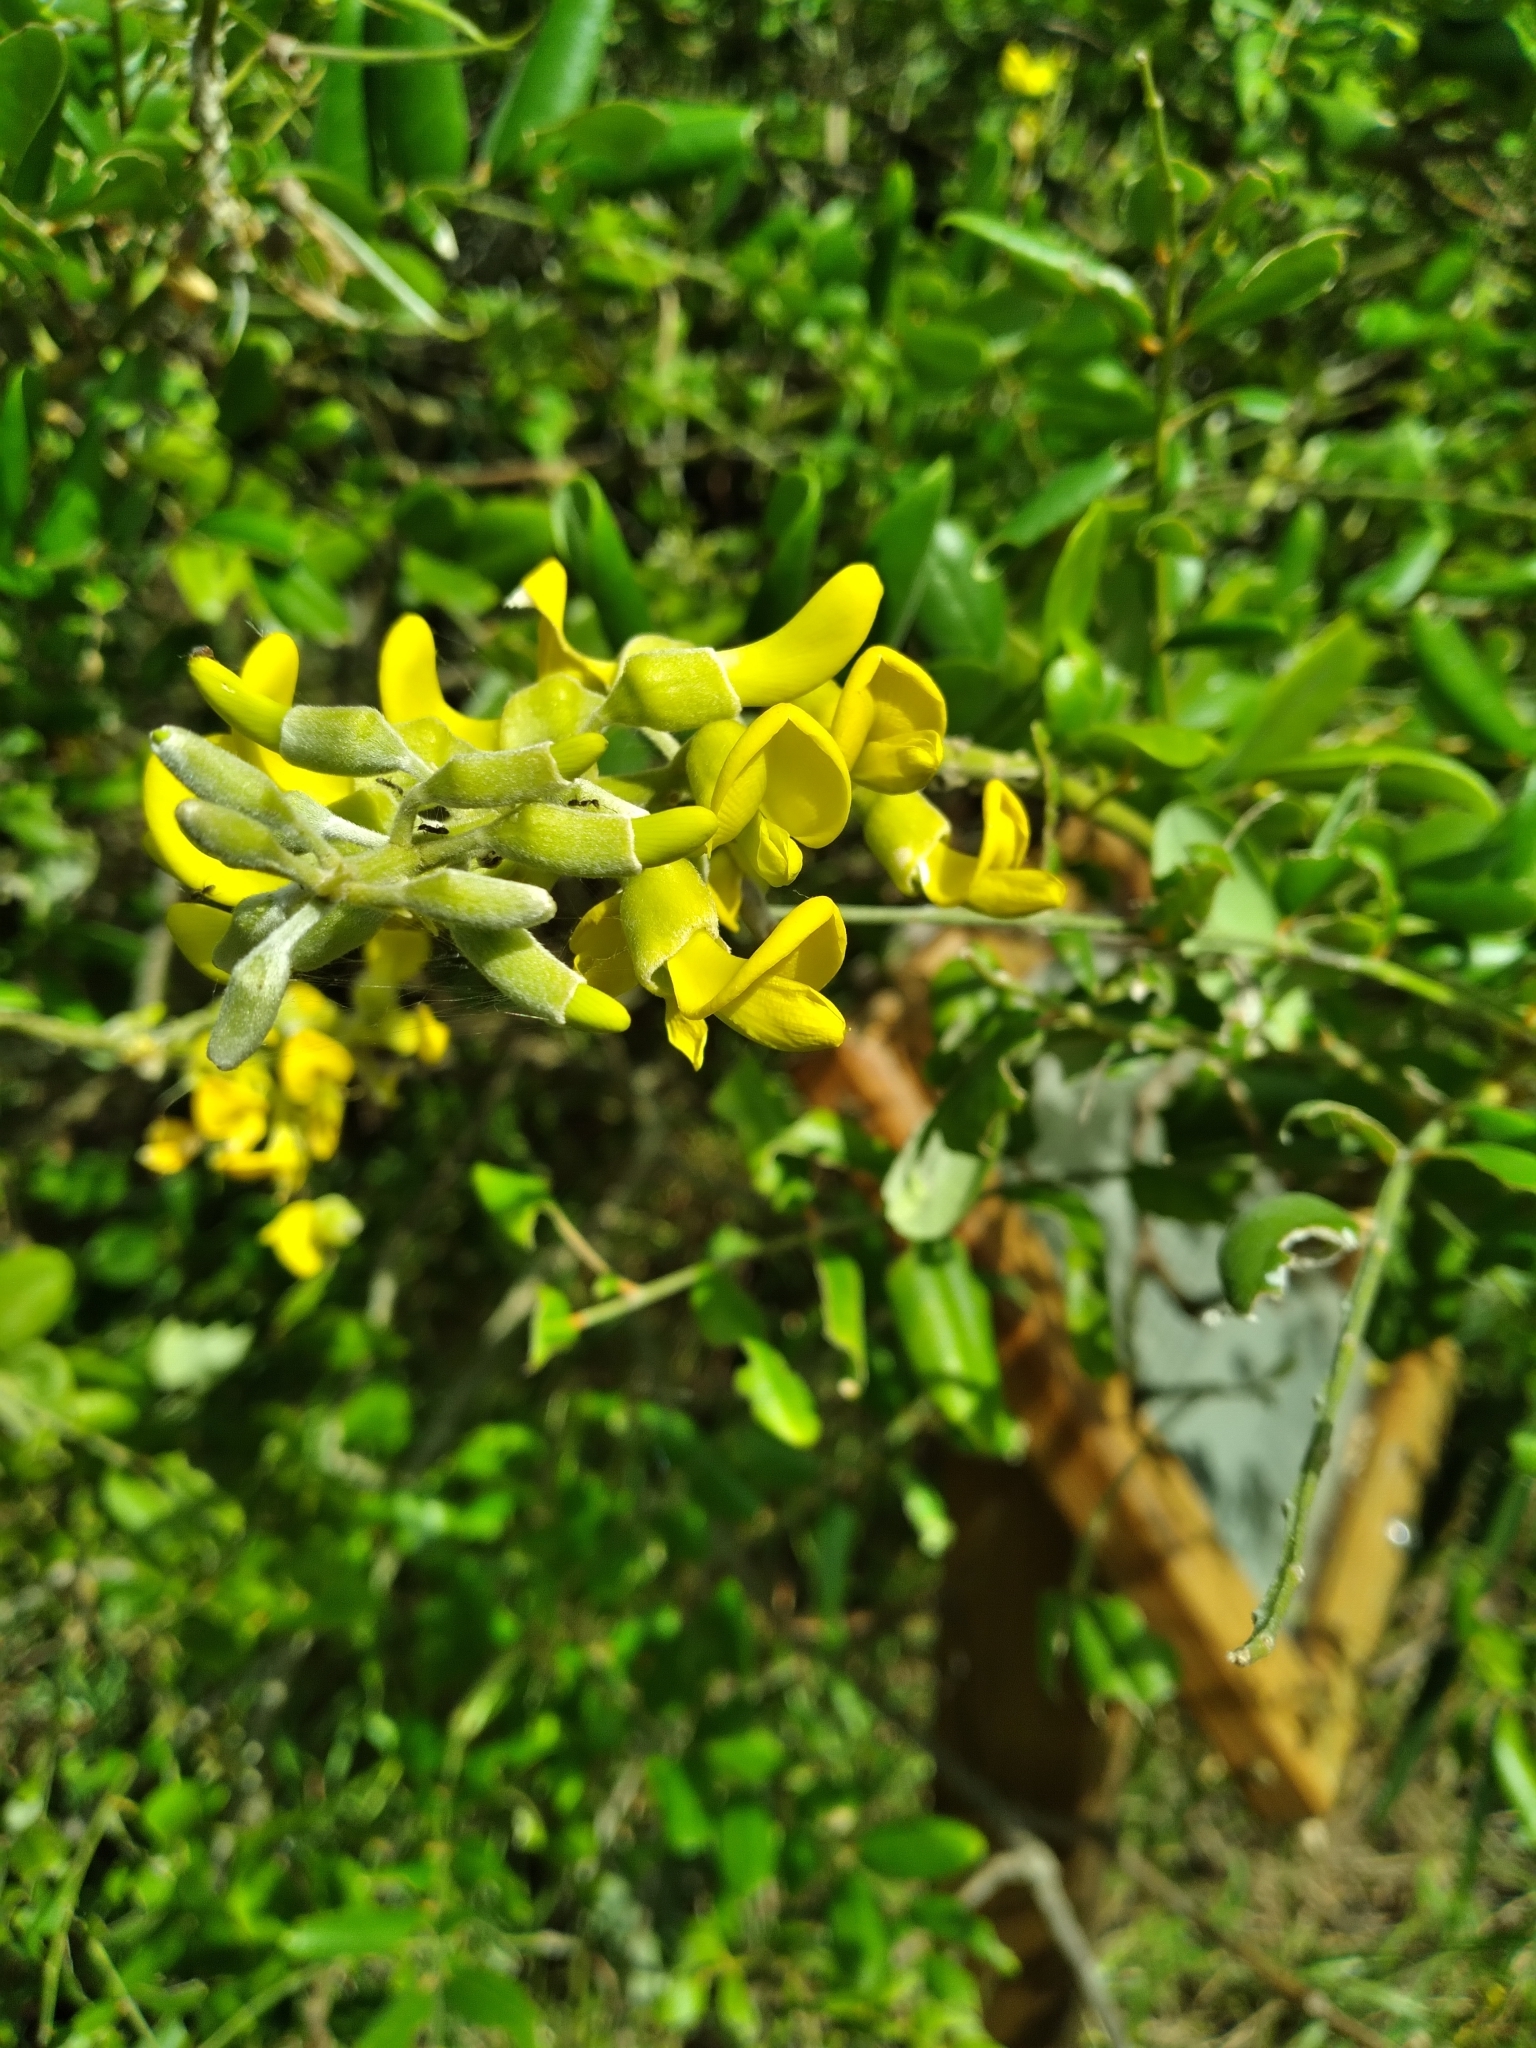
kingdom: Plantae
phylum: Tracheophyta
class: Magnoliopsida
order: Fabales
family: Fabaceae
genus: Sophora
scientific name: Sophora tomentosa
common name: Yellow necklacepod
